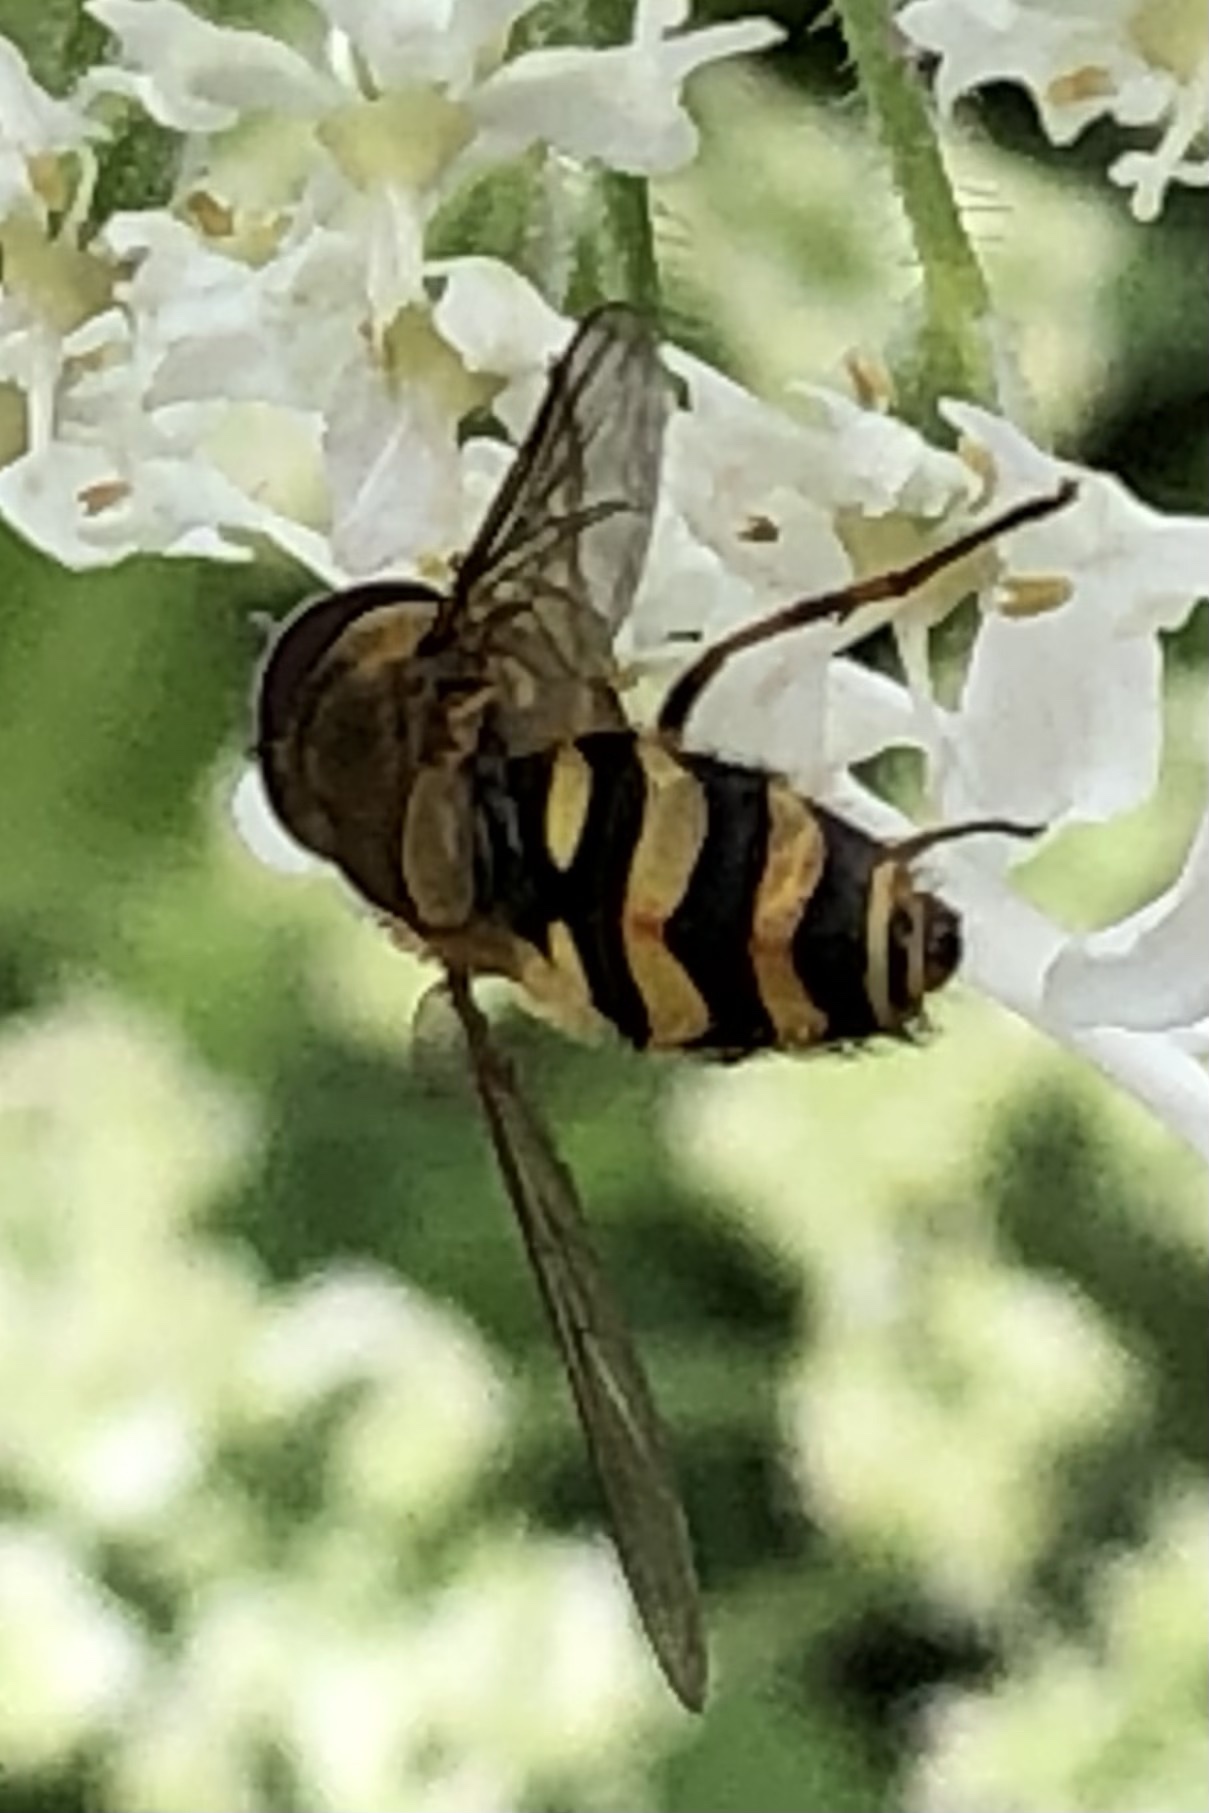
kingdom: Animalia
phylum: Arthropoda
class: Insecta
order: Diptera
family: Syrphidae
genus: Syrphus
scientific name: Syrphus
